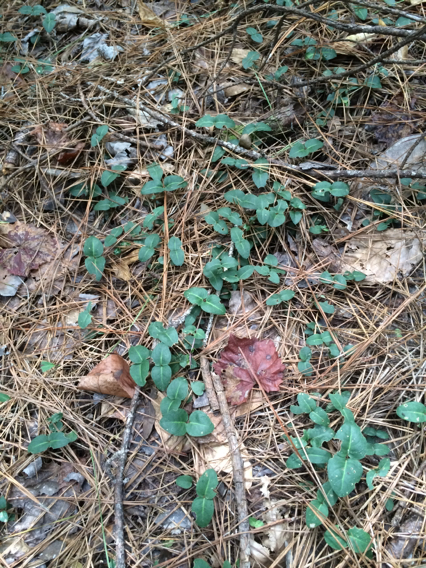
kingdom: Plantae
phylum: Tracheophyta
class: Magnoliopsida
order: Gentianales
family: Rubiaceae
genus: Mitchella
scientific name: Mitchella repens
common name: Partridge-berry
